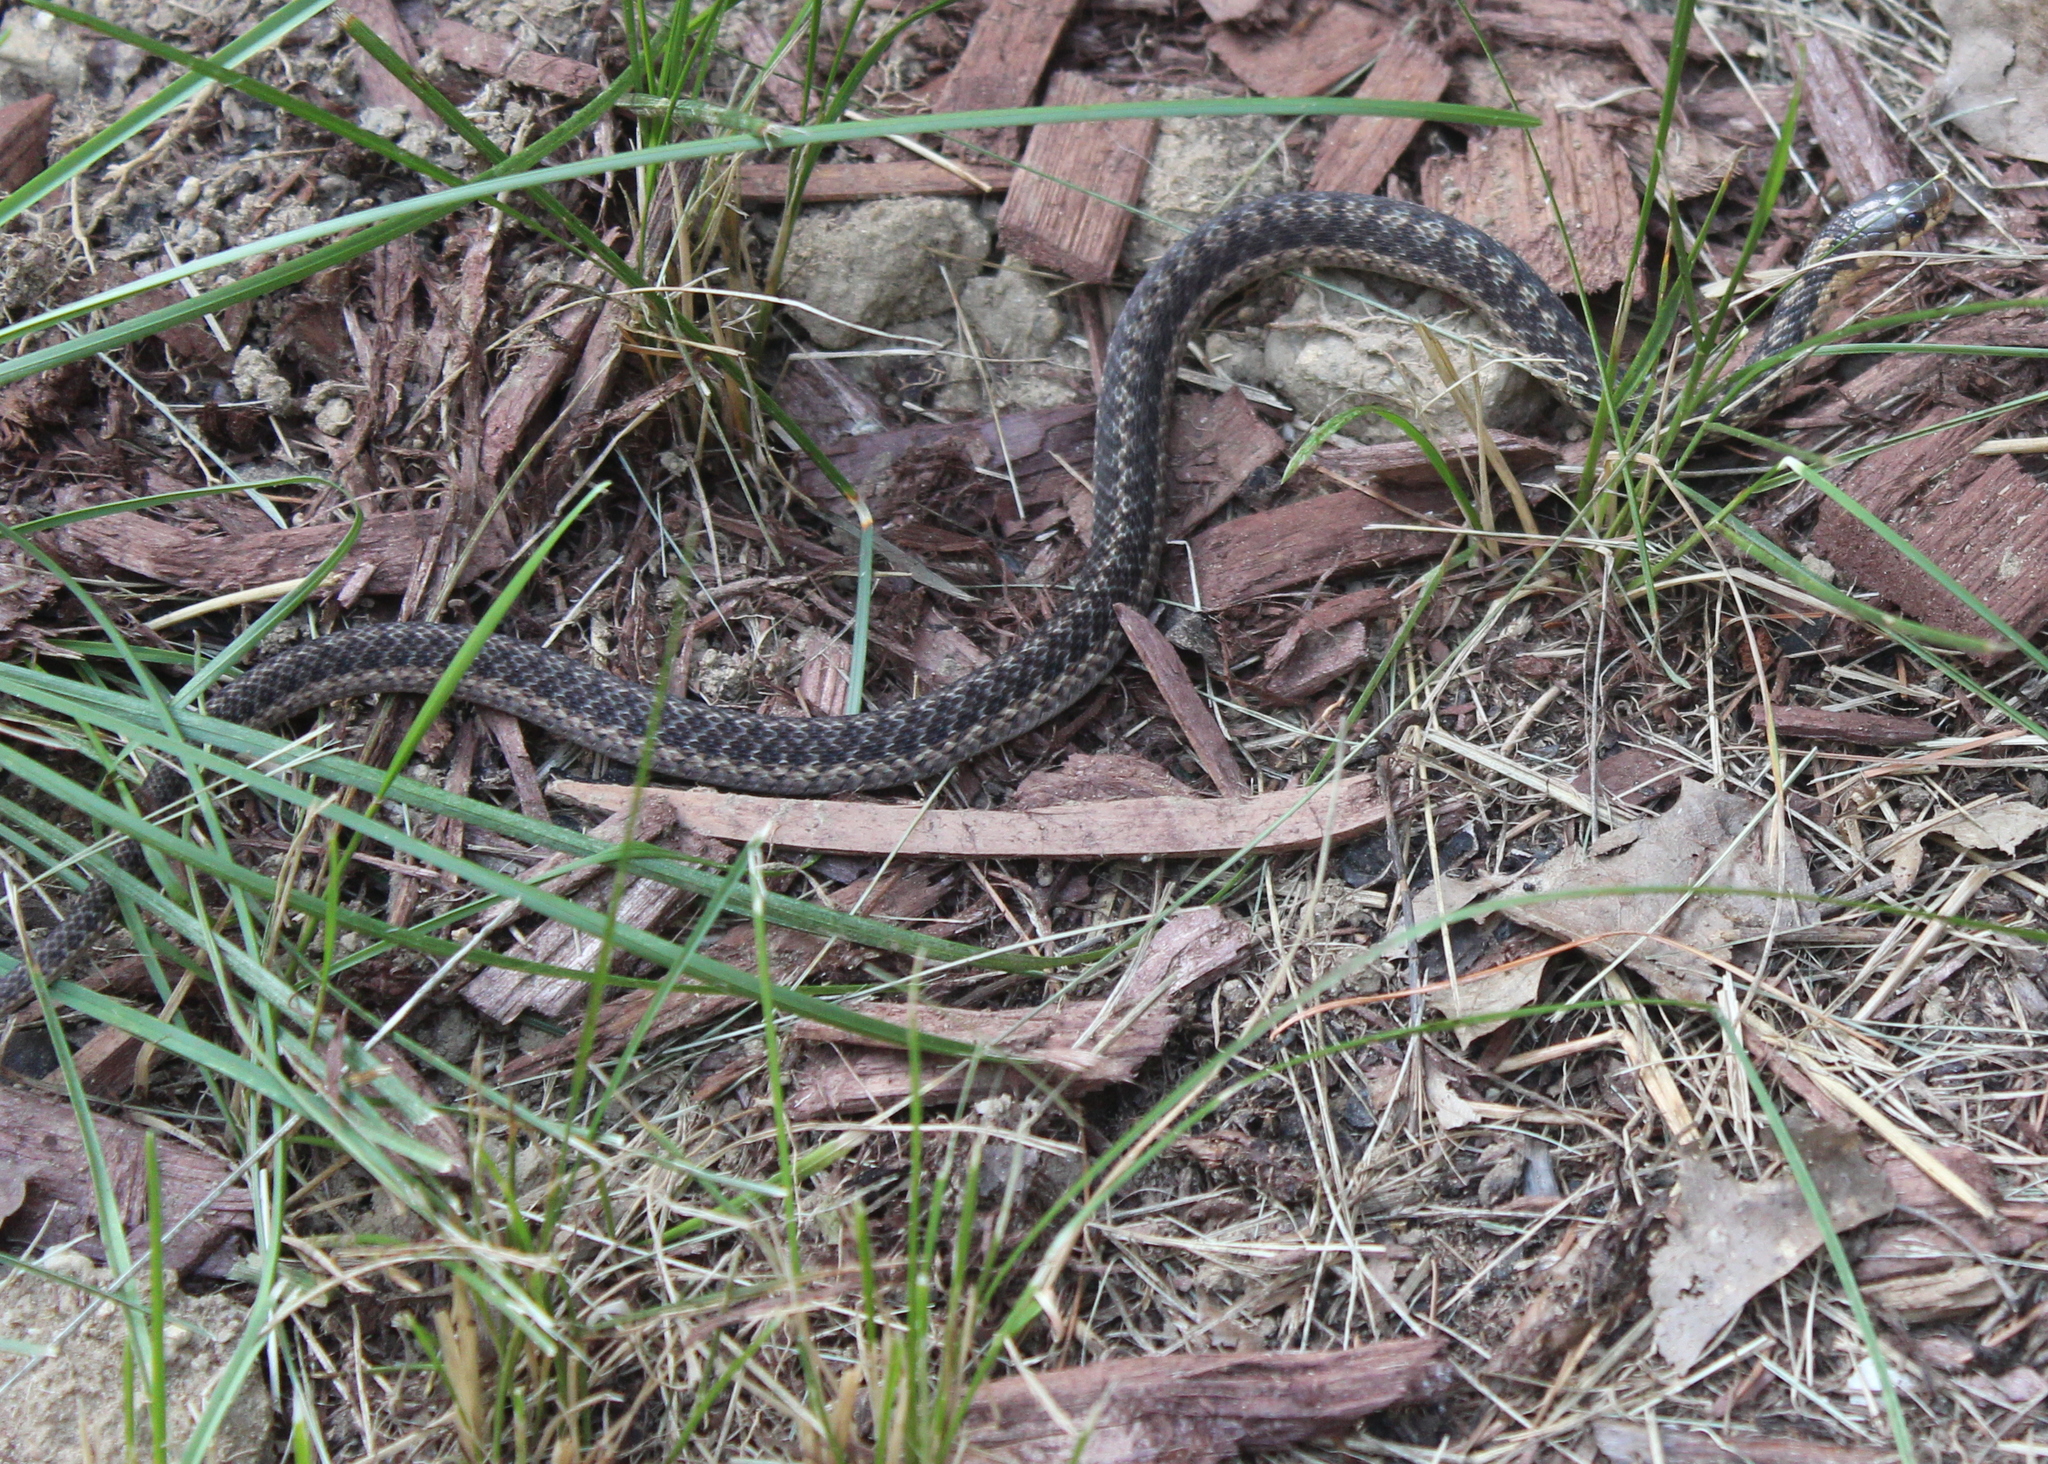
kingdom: Animalia
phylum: Chordata
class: Squamata
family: Colubridae
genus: Thamnophis
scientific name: Thamnophis sirtalis
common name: Common garter snake
